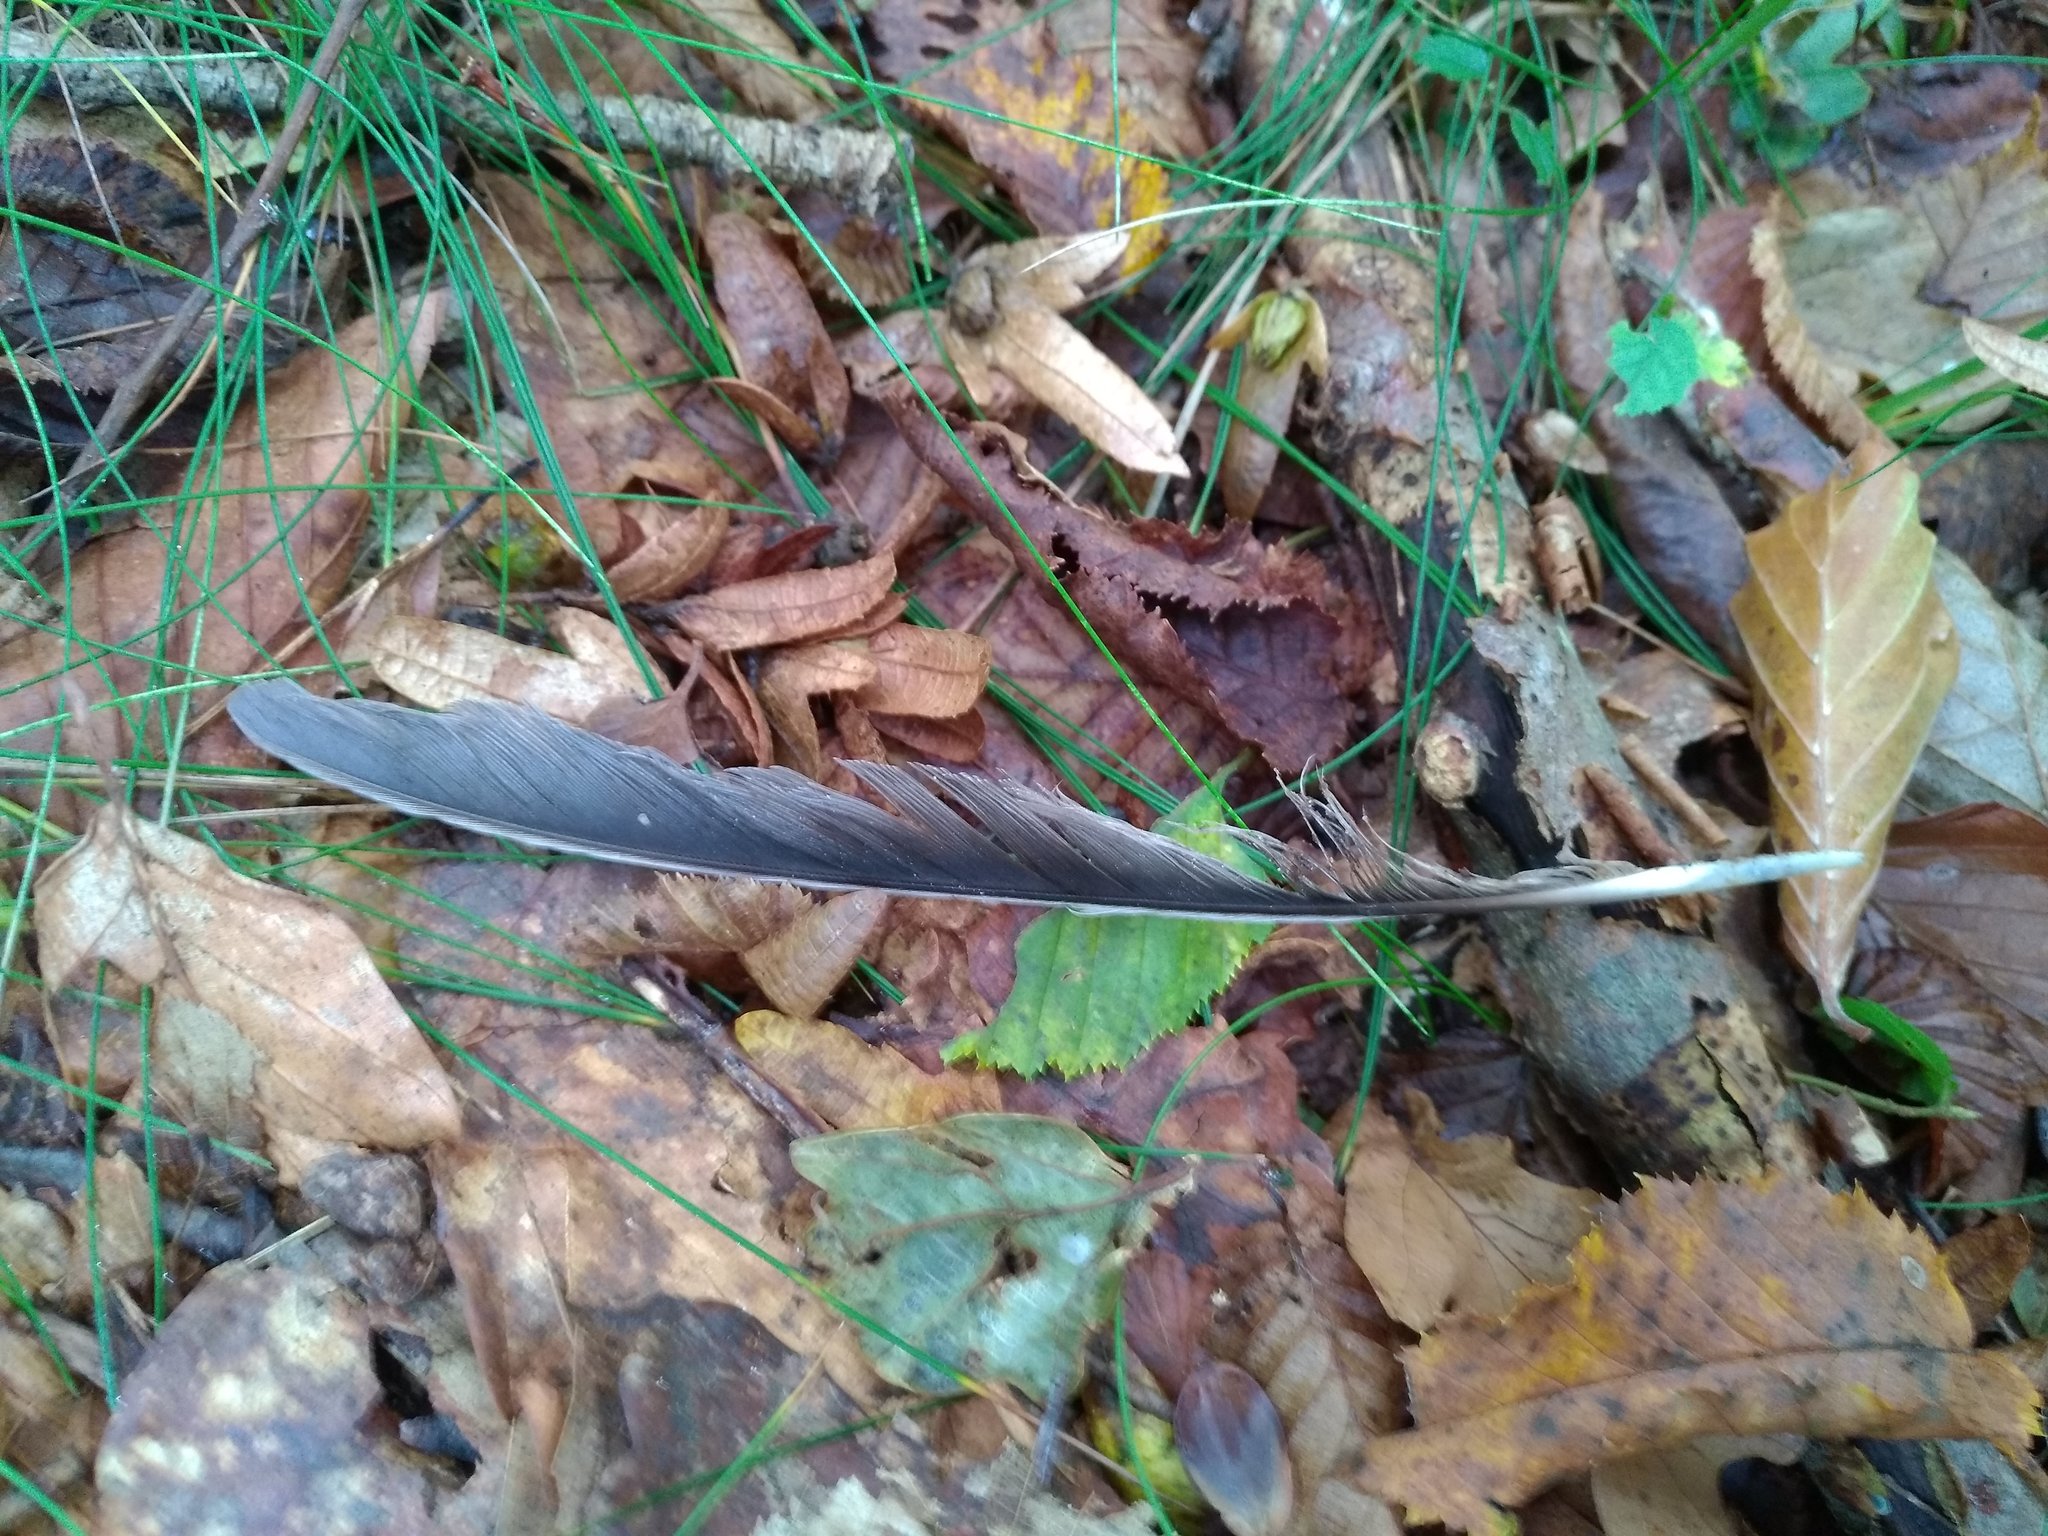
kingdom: Animalia
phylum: Chordata
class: Aves
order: Passeriformes
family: Corvidae
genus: Garrulus
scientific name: Garrulus glandarius
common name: Eurasian jay
